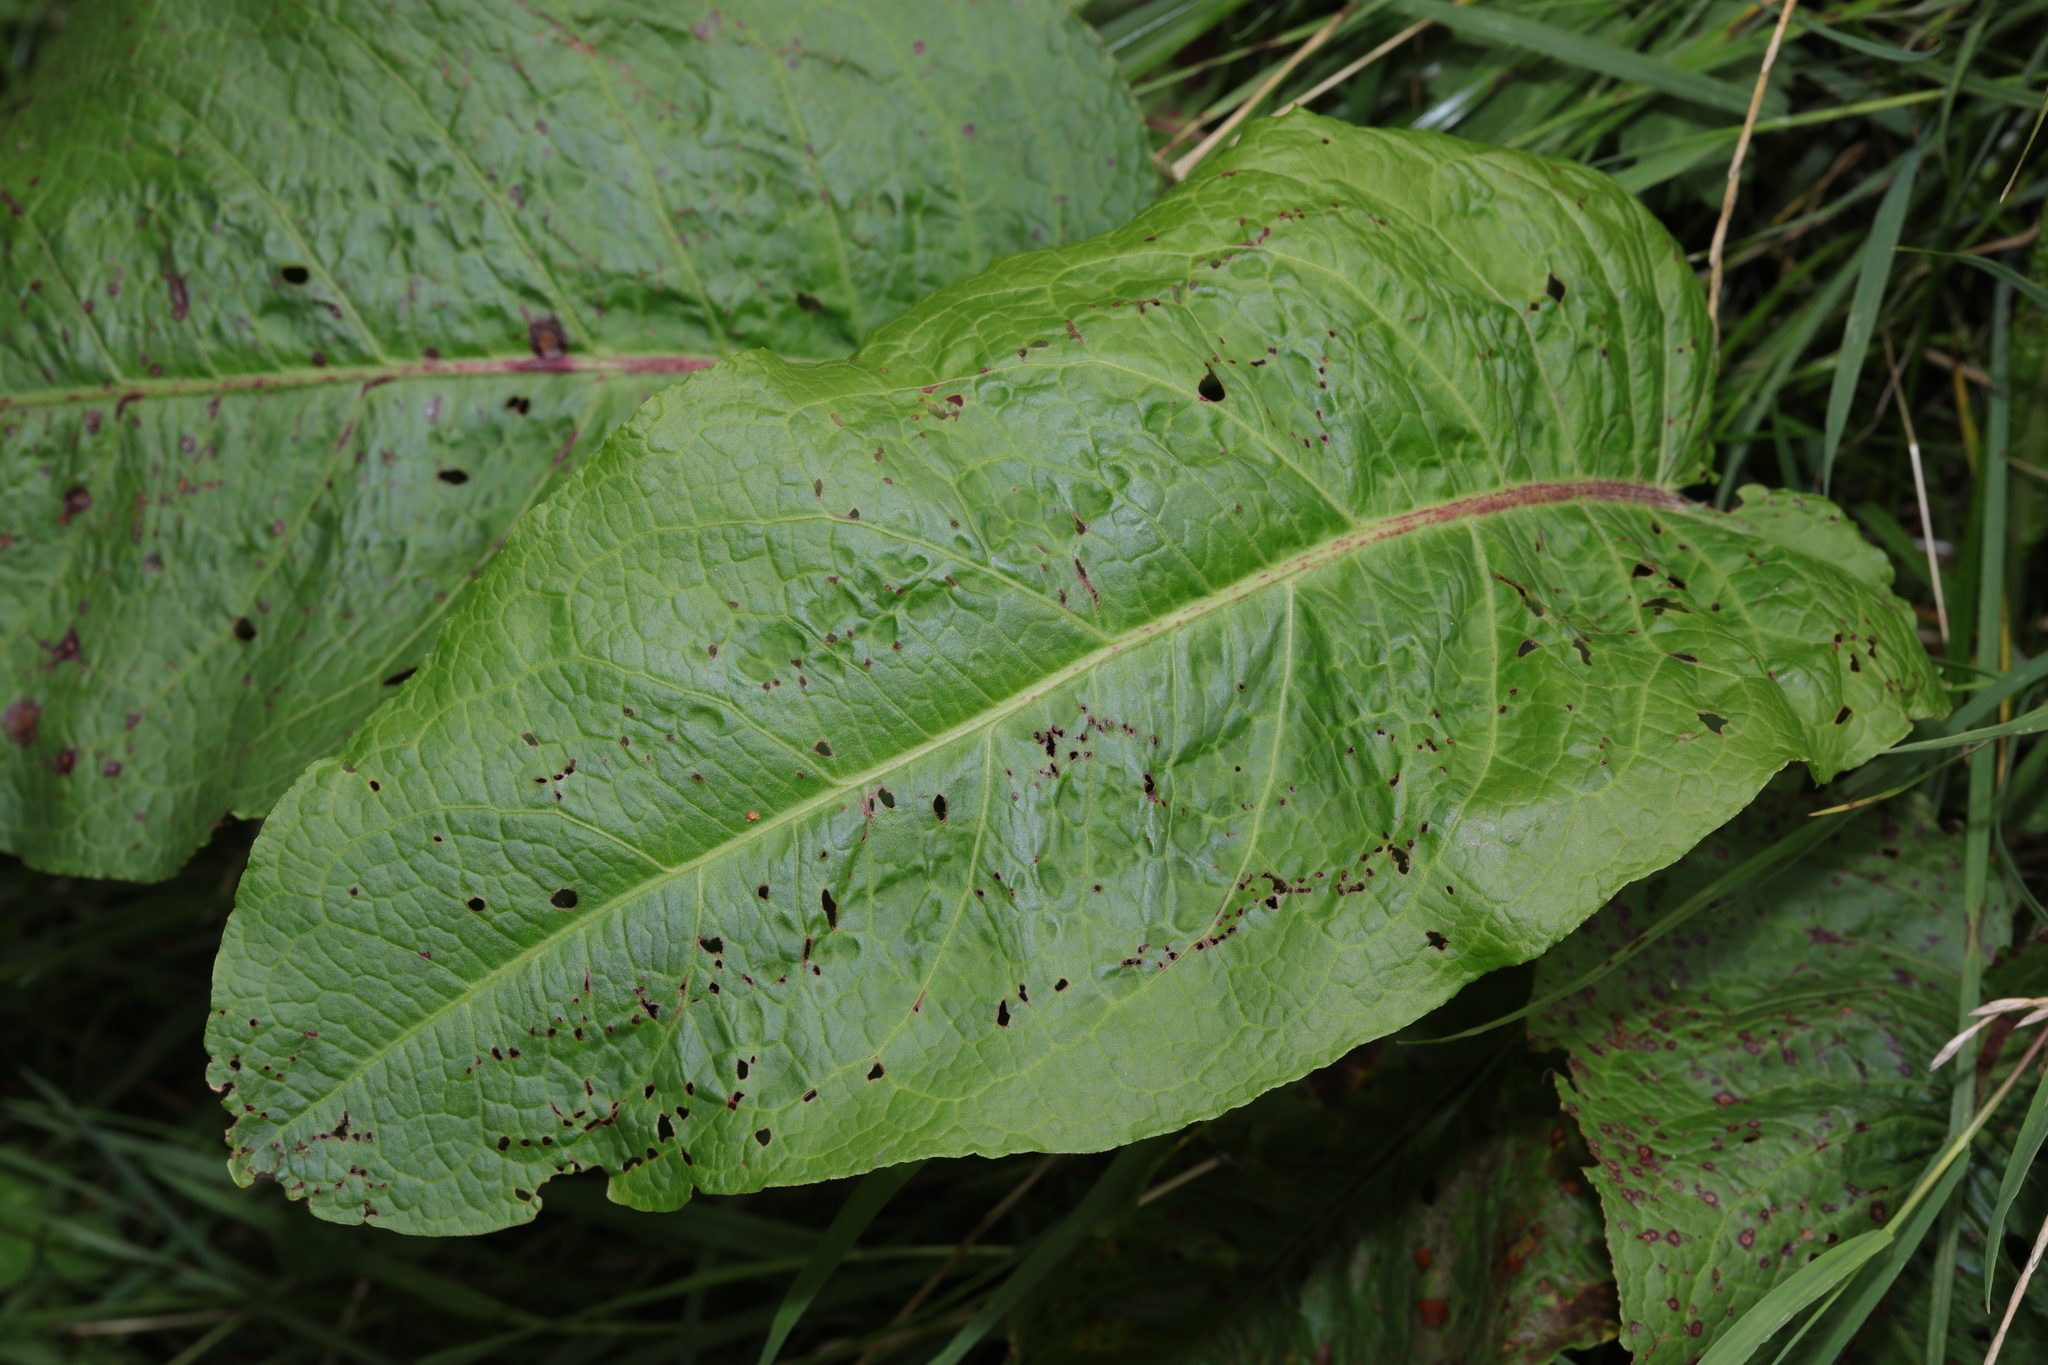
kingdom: Plantae
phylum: Tracheophyta
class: Magnoliopsida
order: Caryophyllales
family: Polygonaceae
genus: Rumex
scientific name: Rumex obtusifolius
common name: Bitter dock
